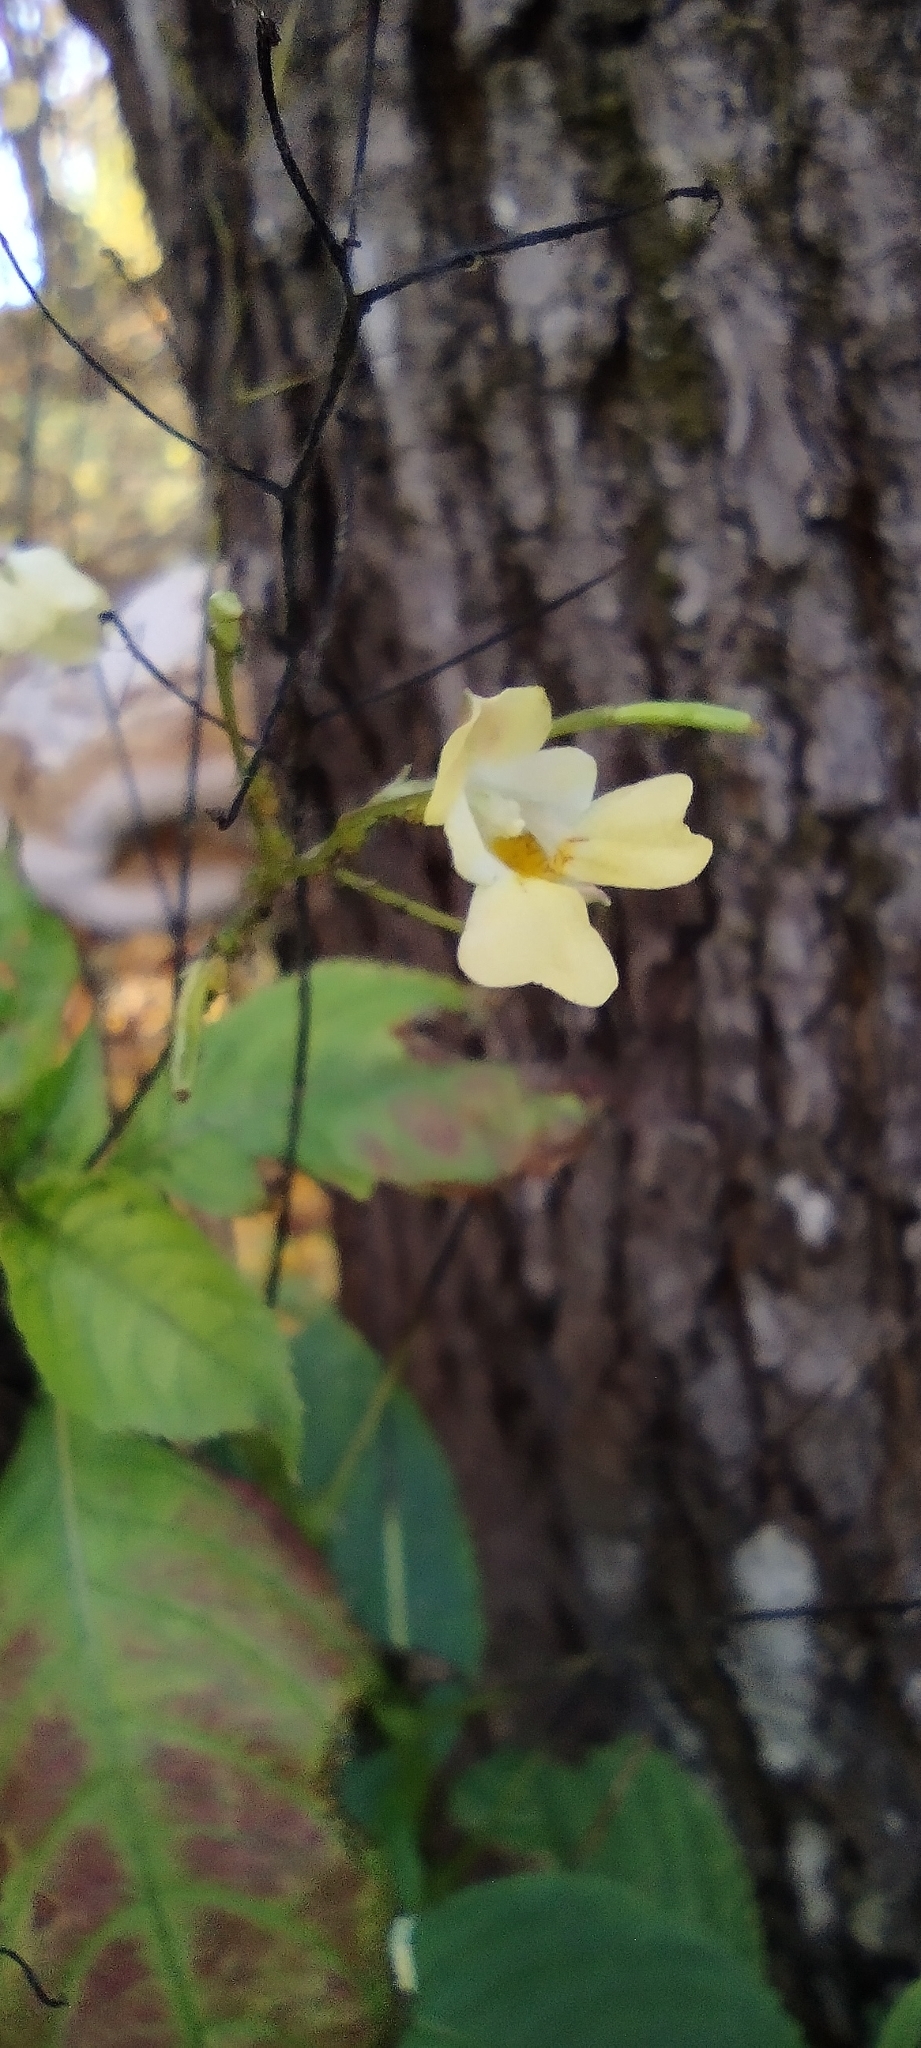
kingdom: Plantae
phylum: Tracheophyta
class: Magnoliopsida
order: Ericales
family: Balsaminaceae
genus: Impatiens
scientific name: Impatiens parviflora
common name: Small balsam
